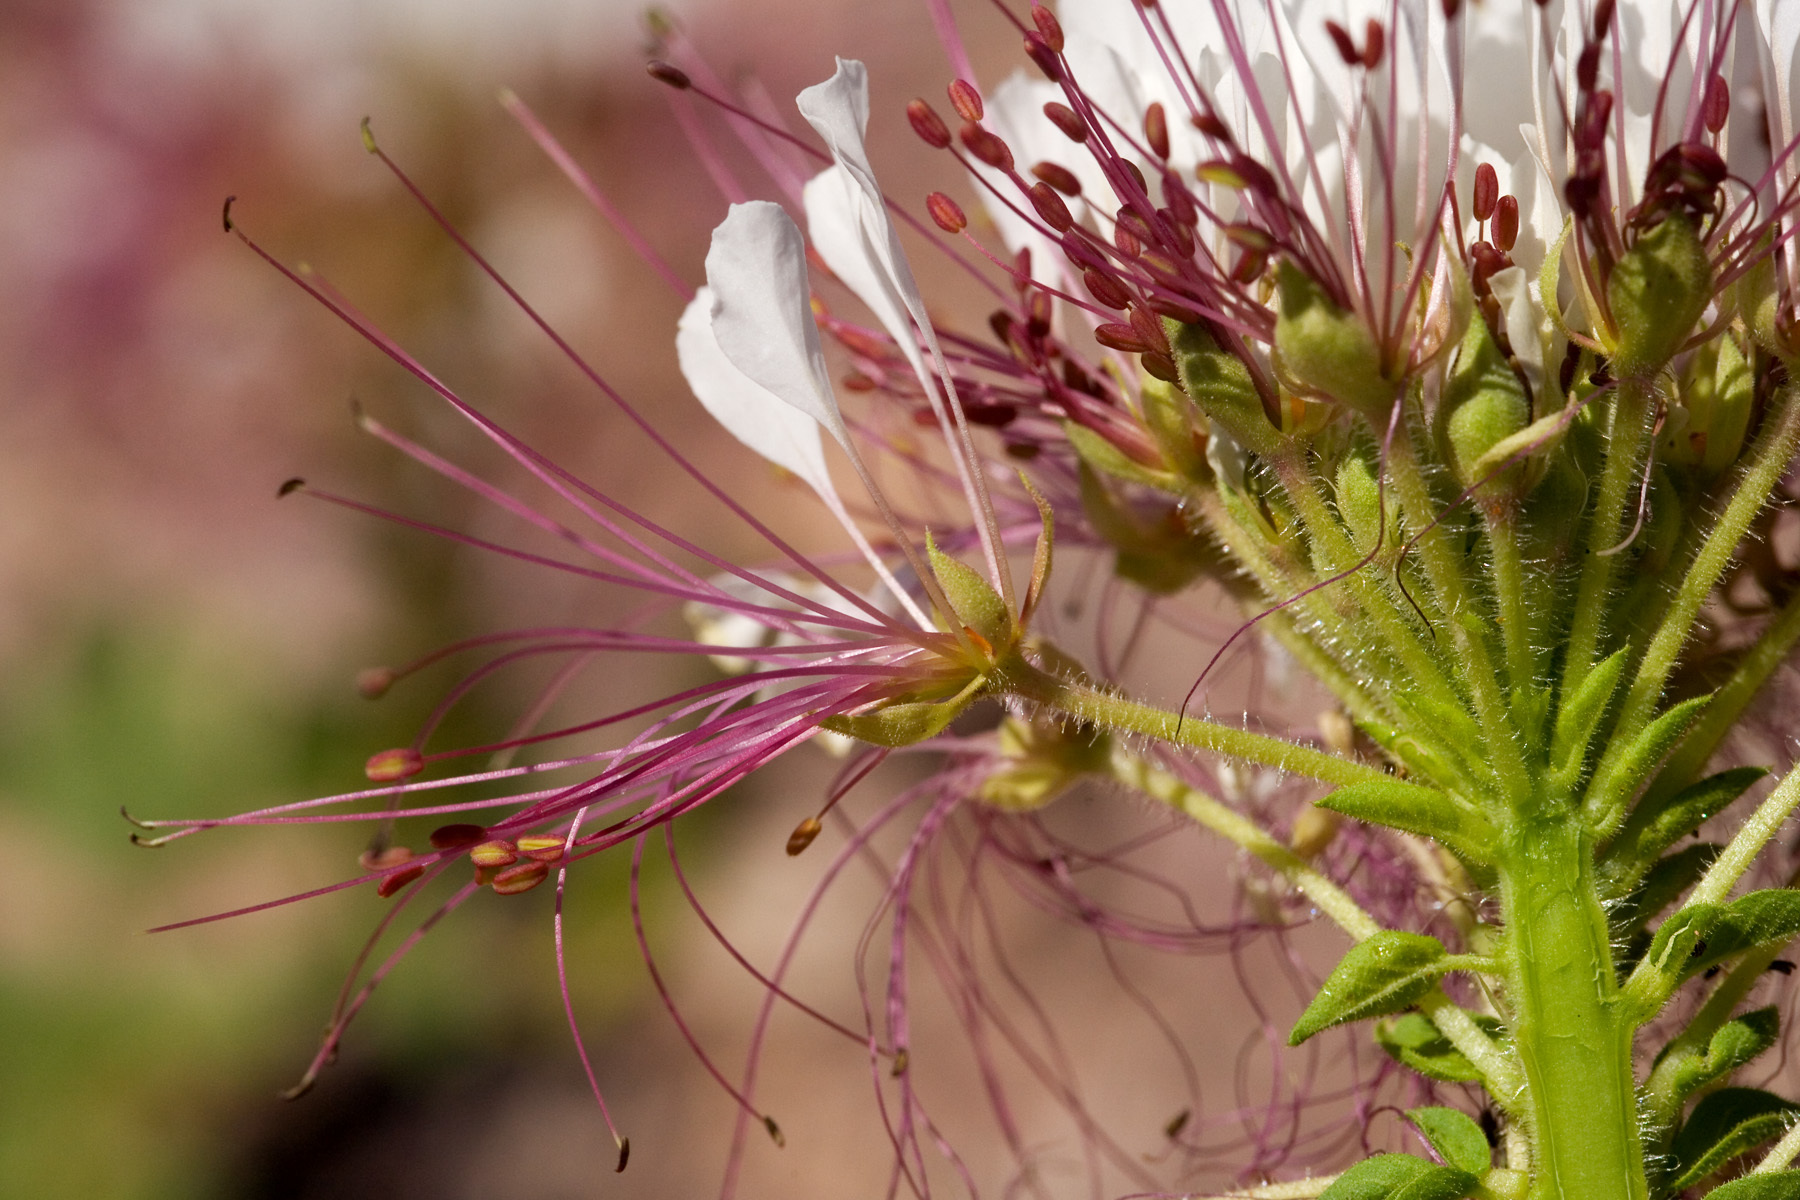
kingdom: Plantae
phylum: Tracheophyta
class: Magnoliopsida
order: Brassicales
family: Cleomaceae
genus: Polanisia
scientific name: Polanisia dodecandra
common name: Clammyweed
